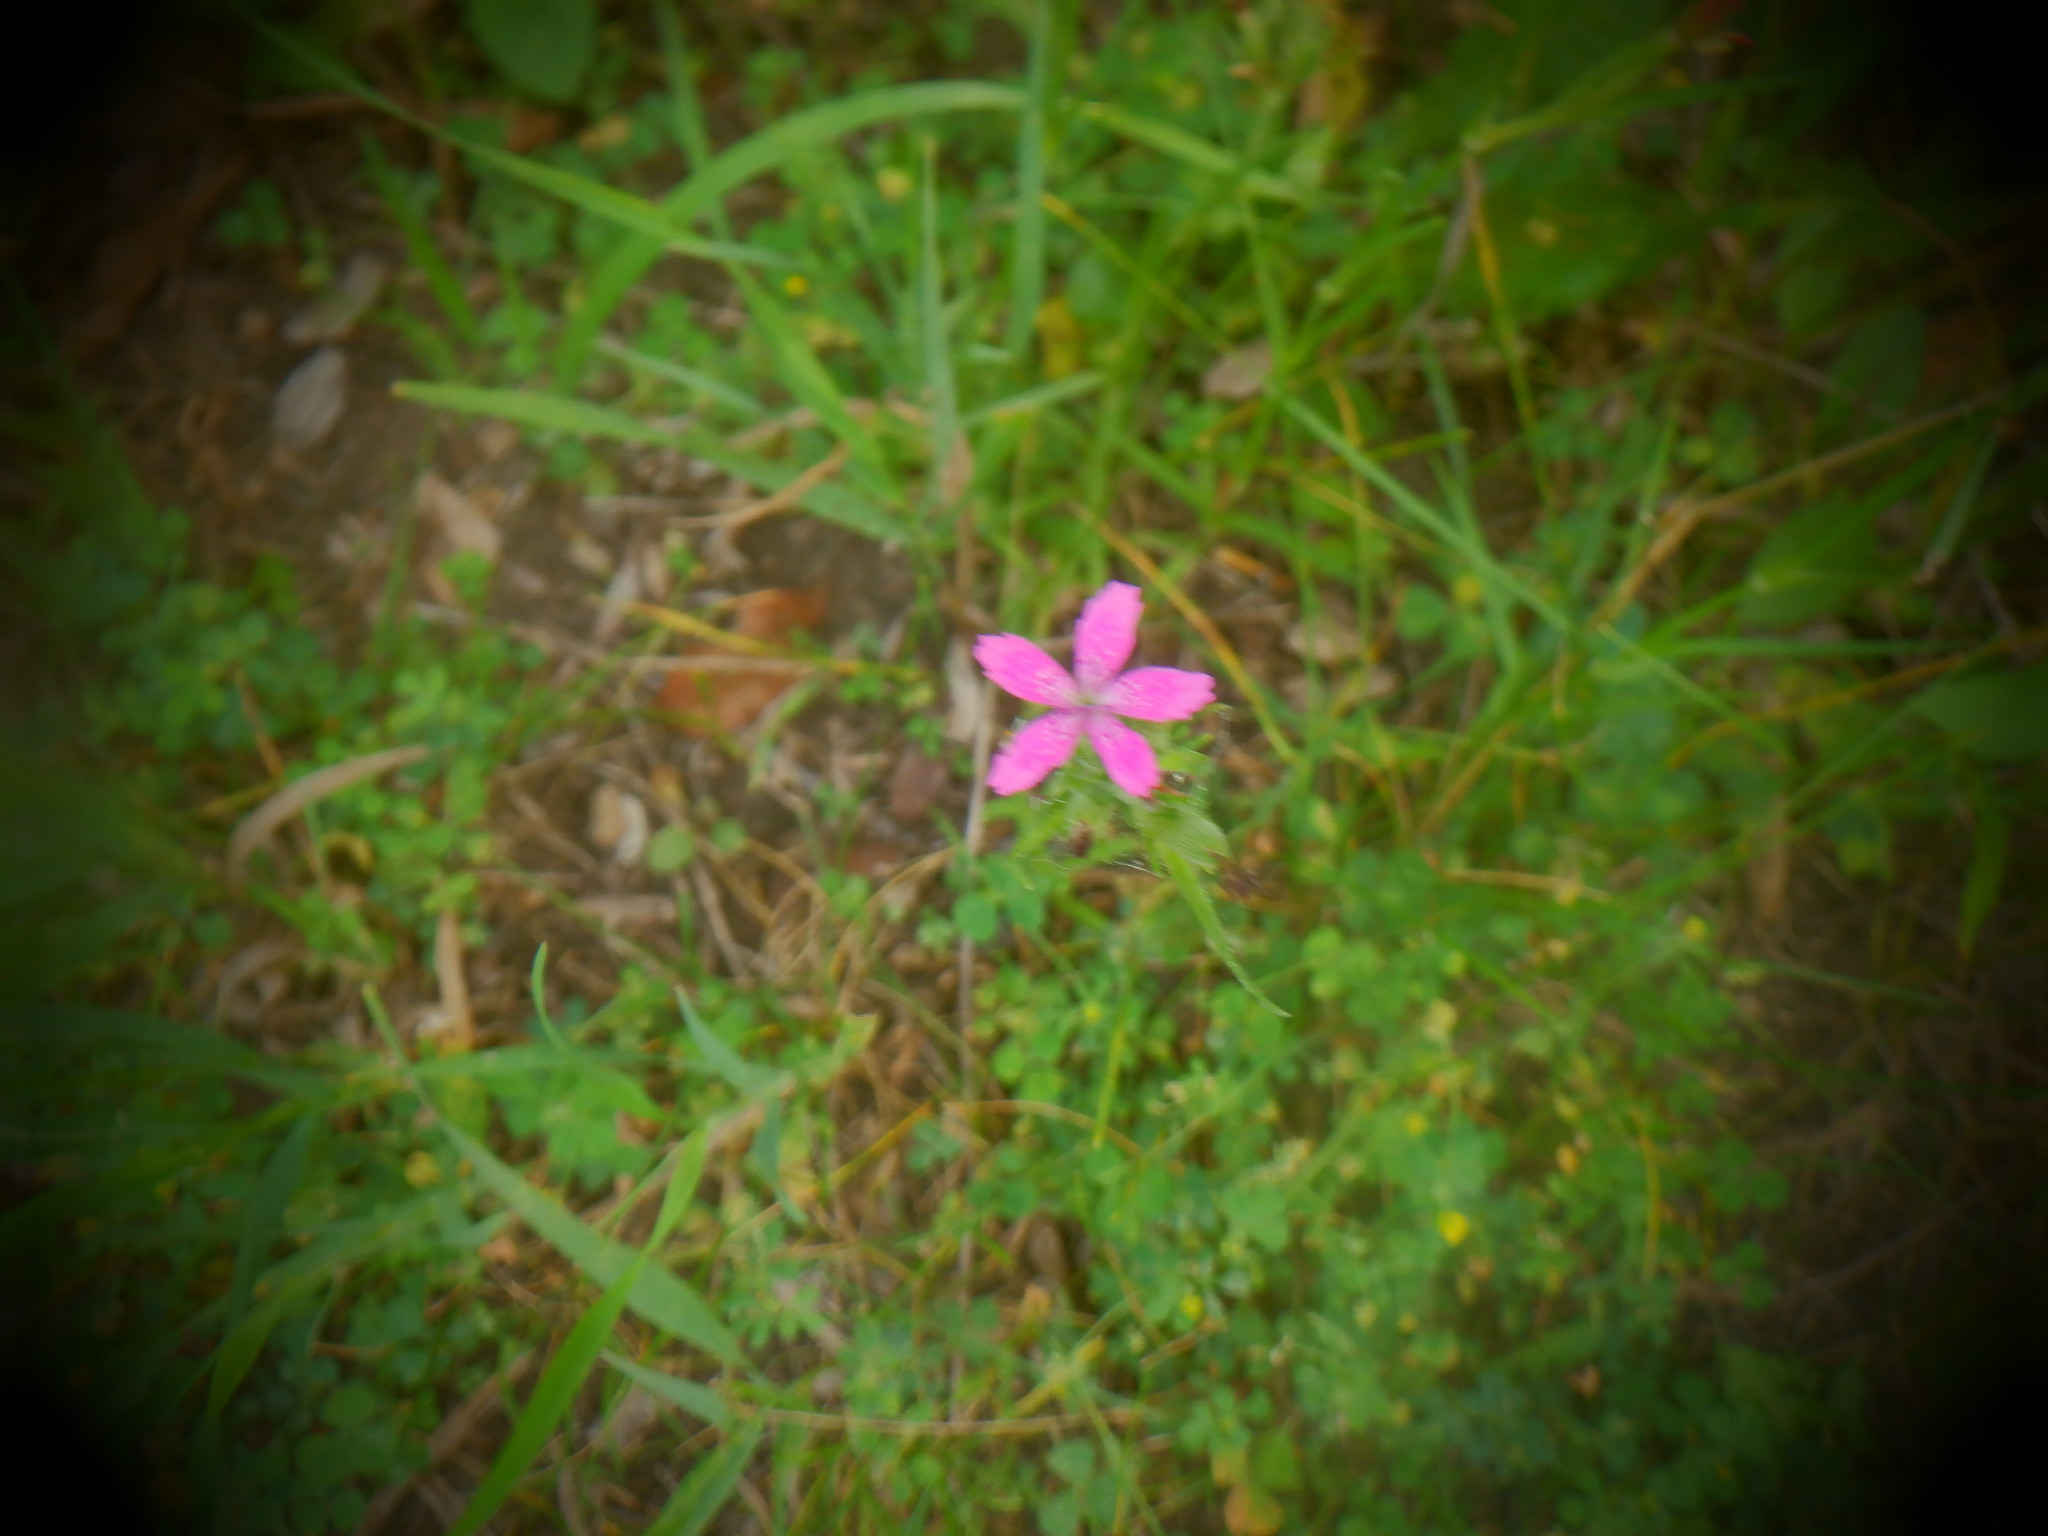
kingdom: Plantae
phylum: Tracheophyta
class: Magnoliopsida
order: Caryophyllales
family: Caryophyllaceae
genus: Dianthus
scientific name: Dianthus armeria
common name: Deptford pink
